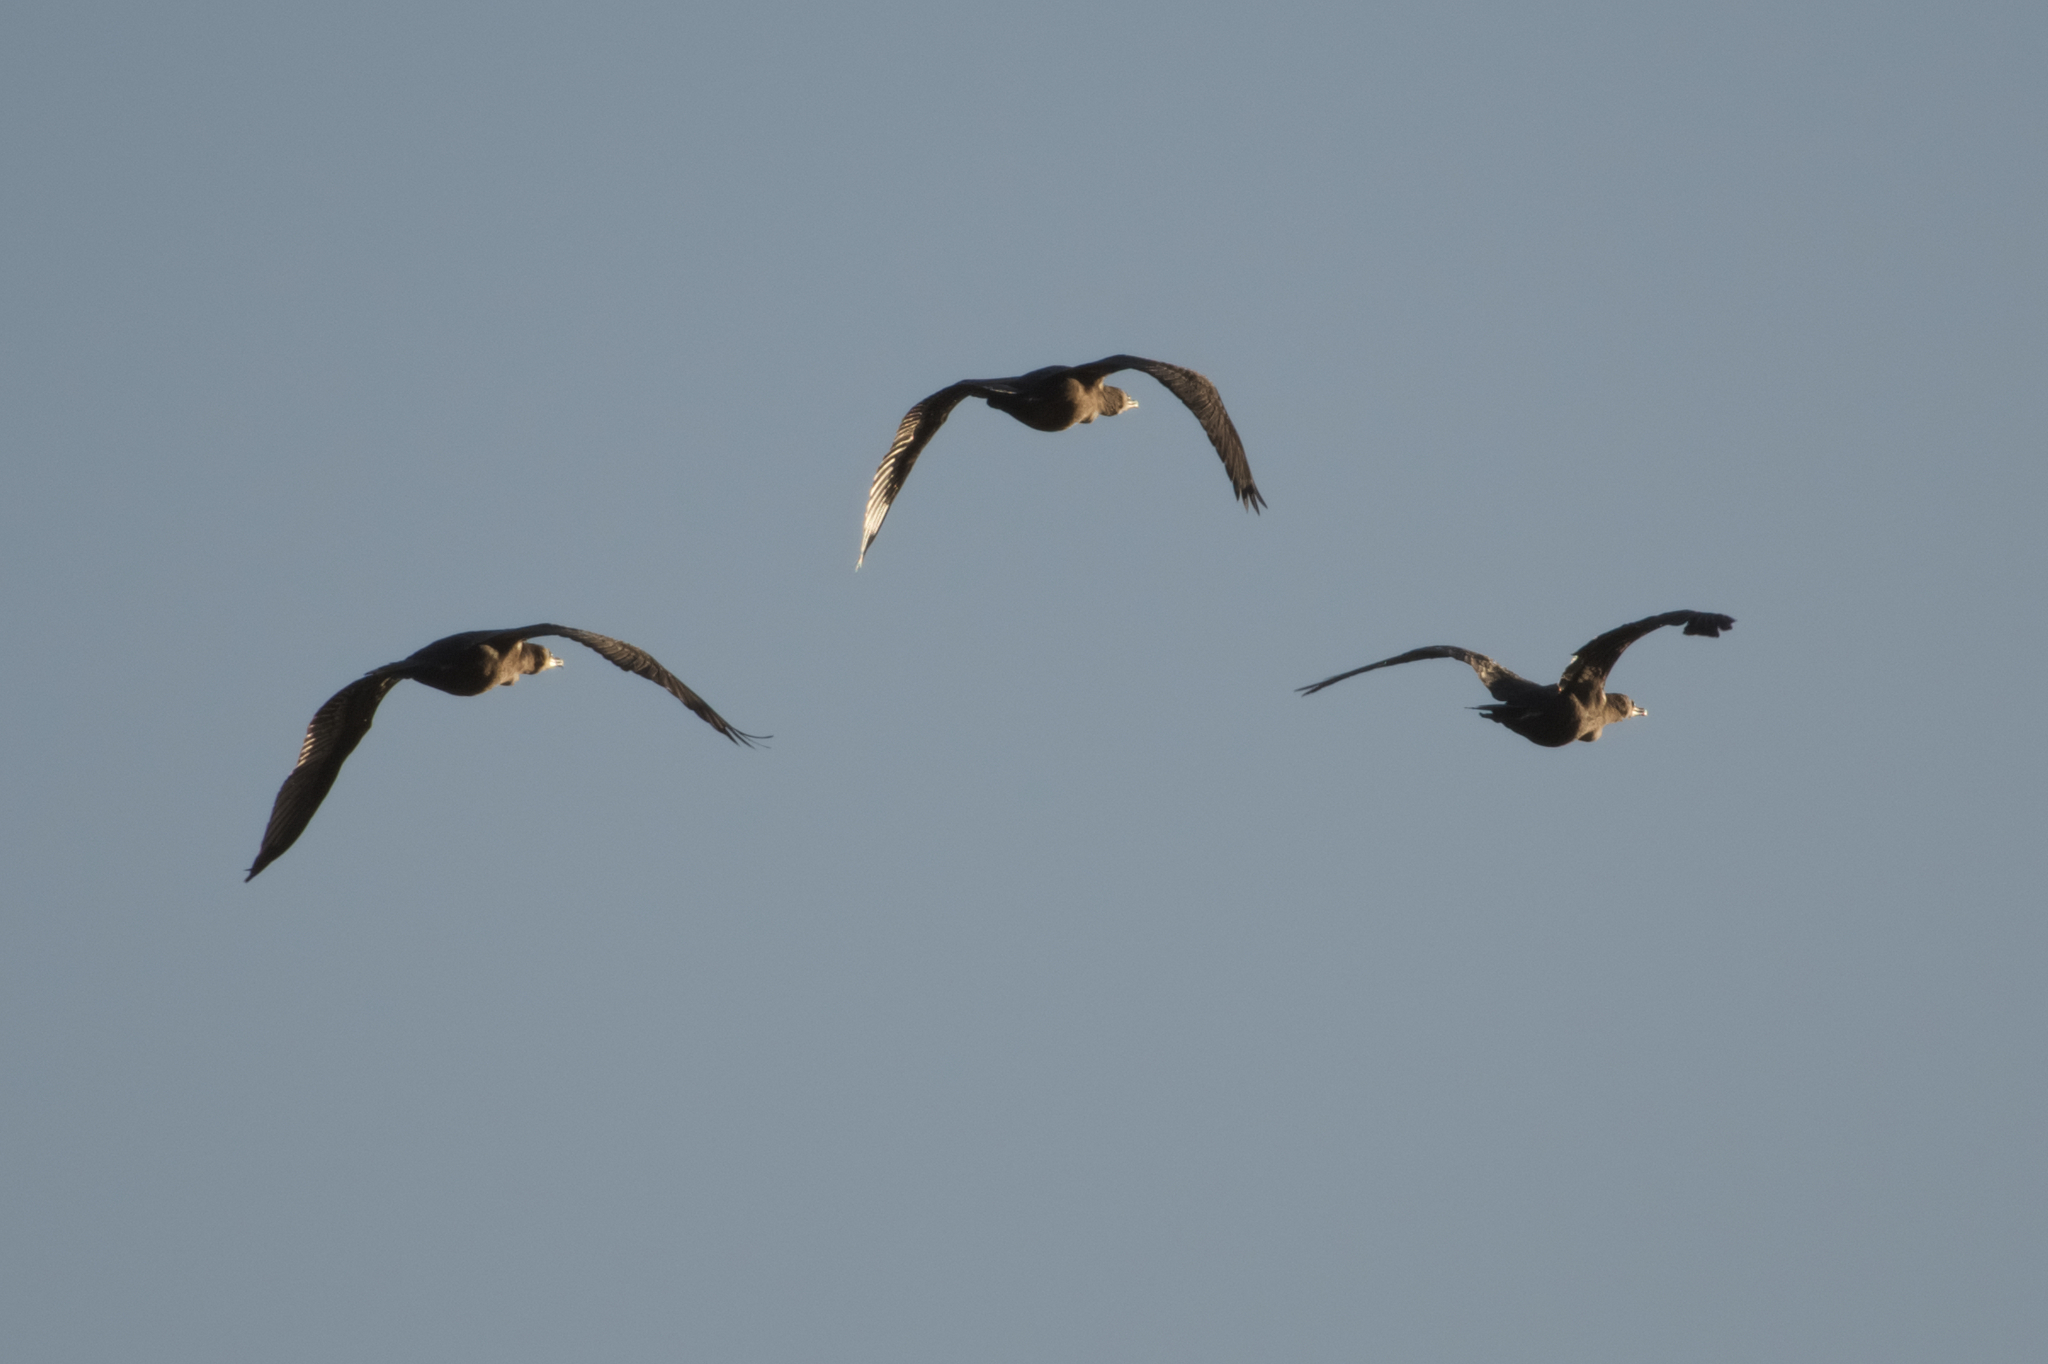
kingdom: Animalia
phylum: Chordata
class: Aves
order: Suliformes
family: Phalacrocoracidae
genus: Phalacrocorax
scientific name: Phalacrocorax auritus
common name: Double-crested cormorant
